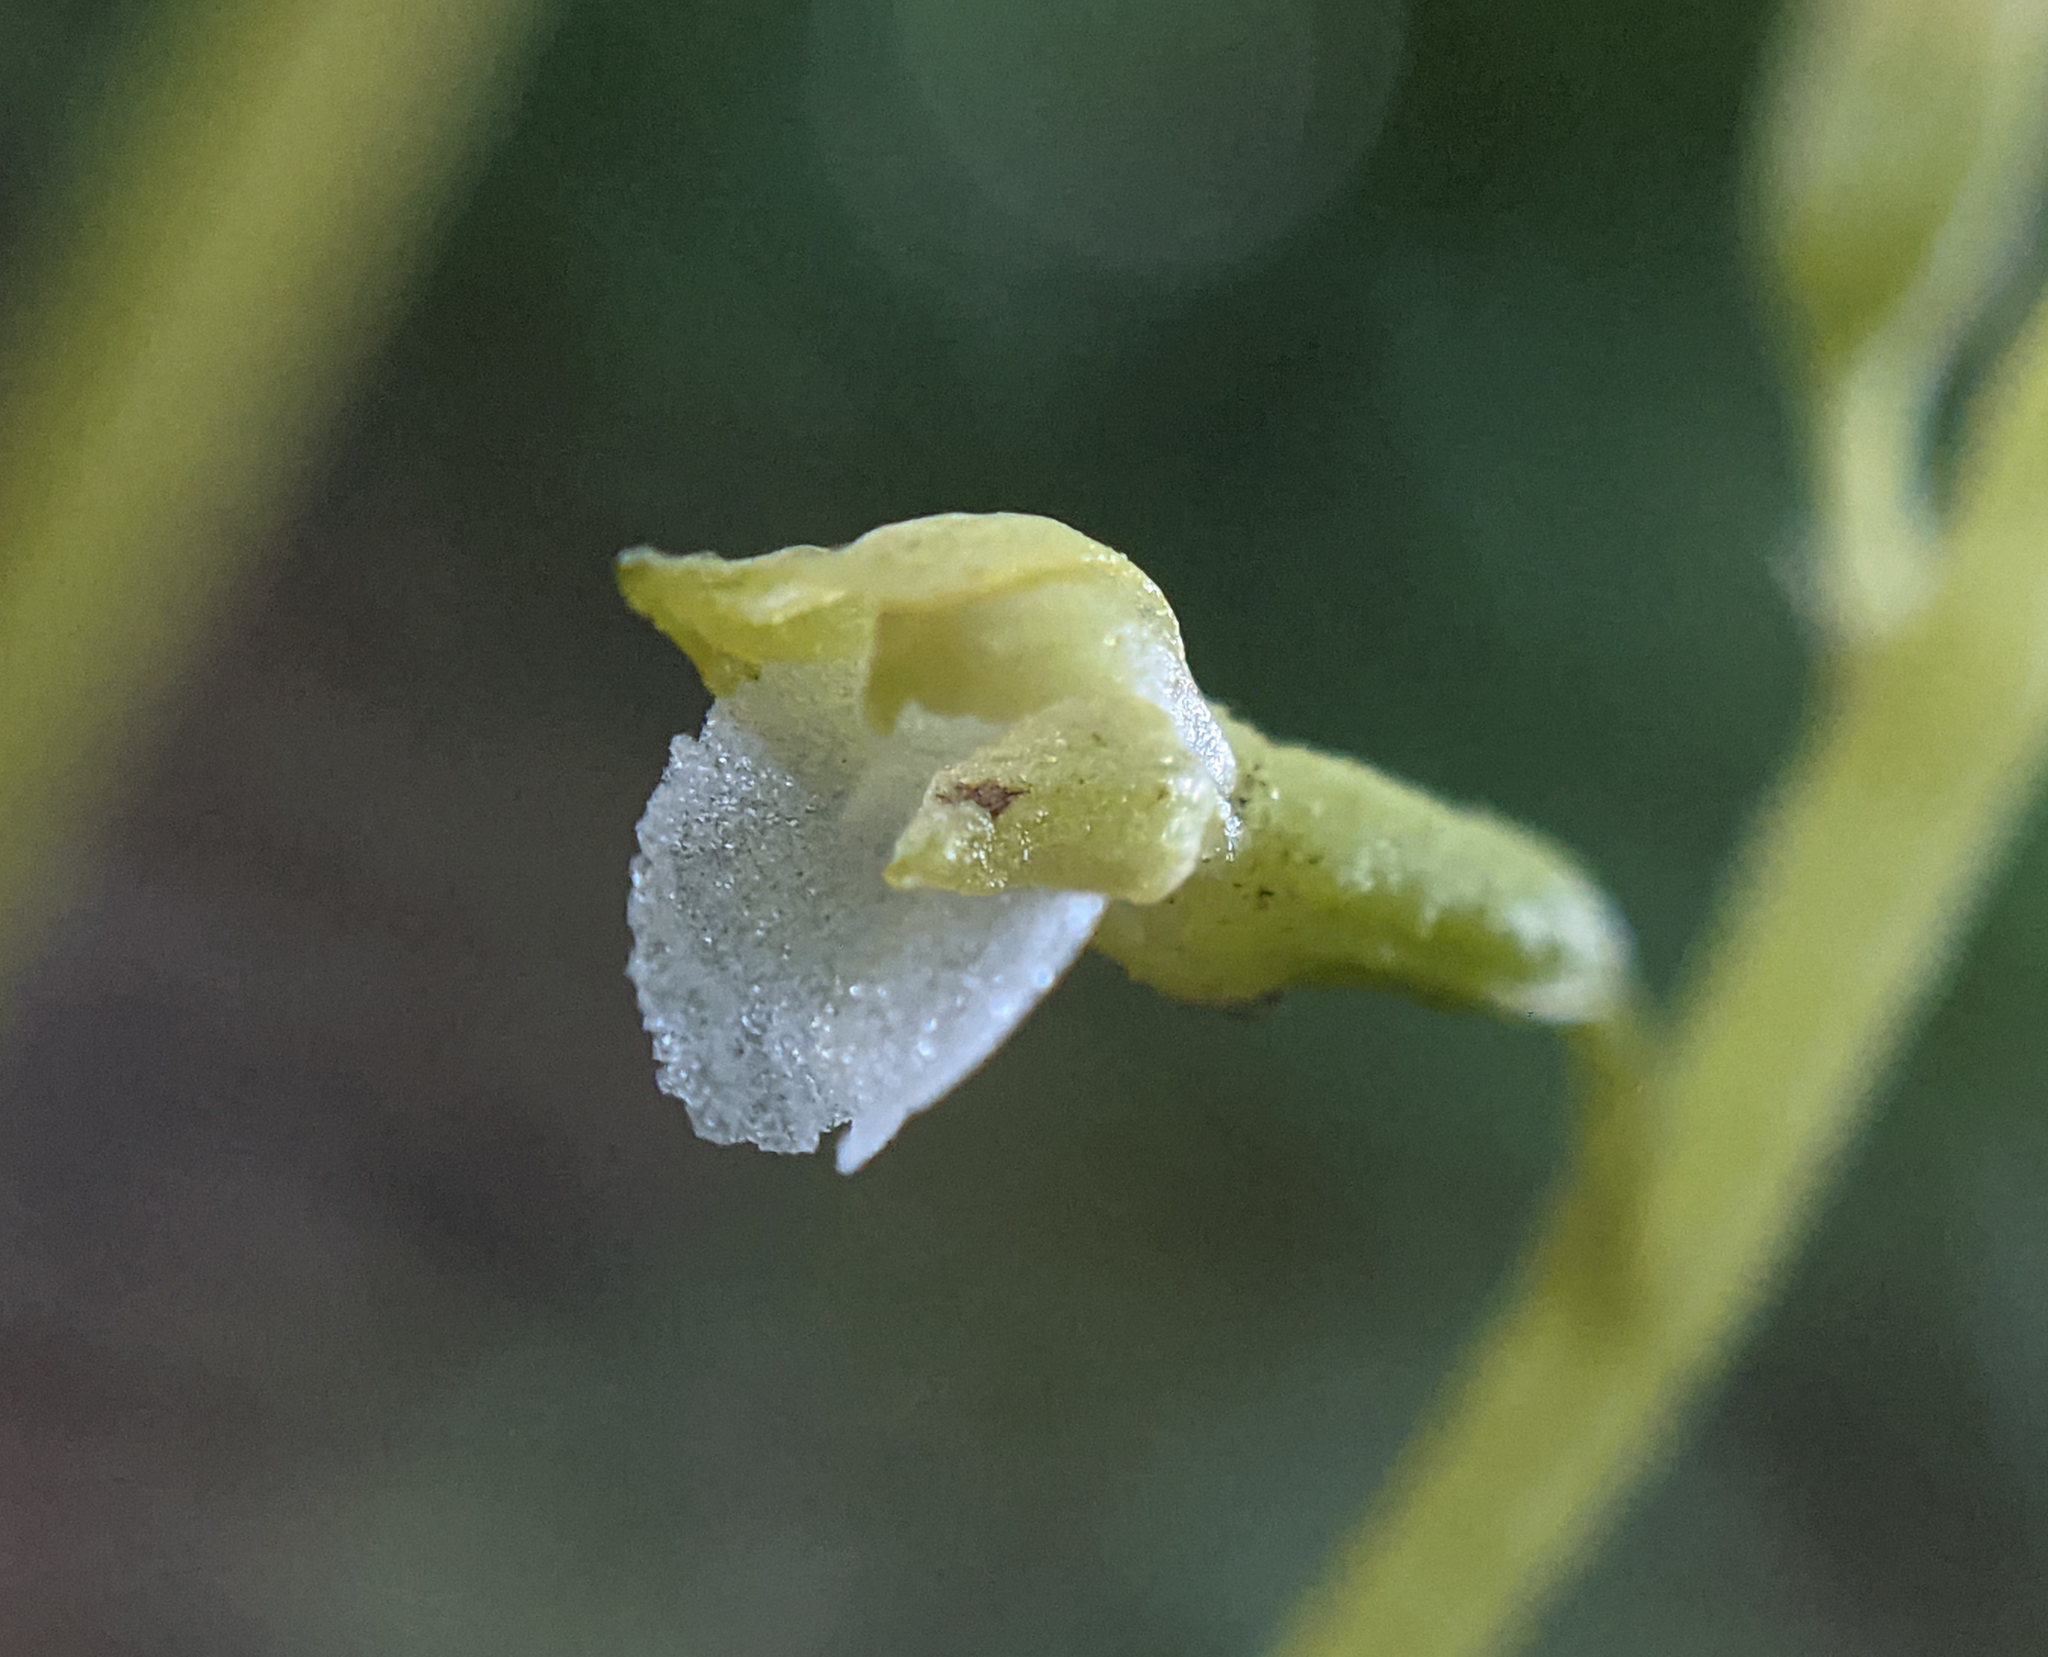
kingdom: Plantae
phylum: Tracheophyta
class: Liliopsida
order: Asparagales
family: Orchidaceae
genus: Corallorhiza
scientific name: Corallorhiza odontorhiza
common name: Autumn coralroot
